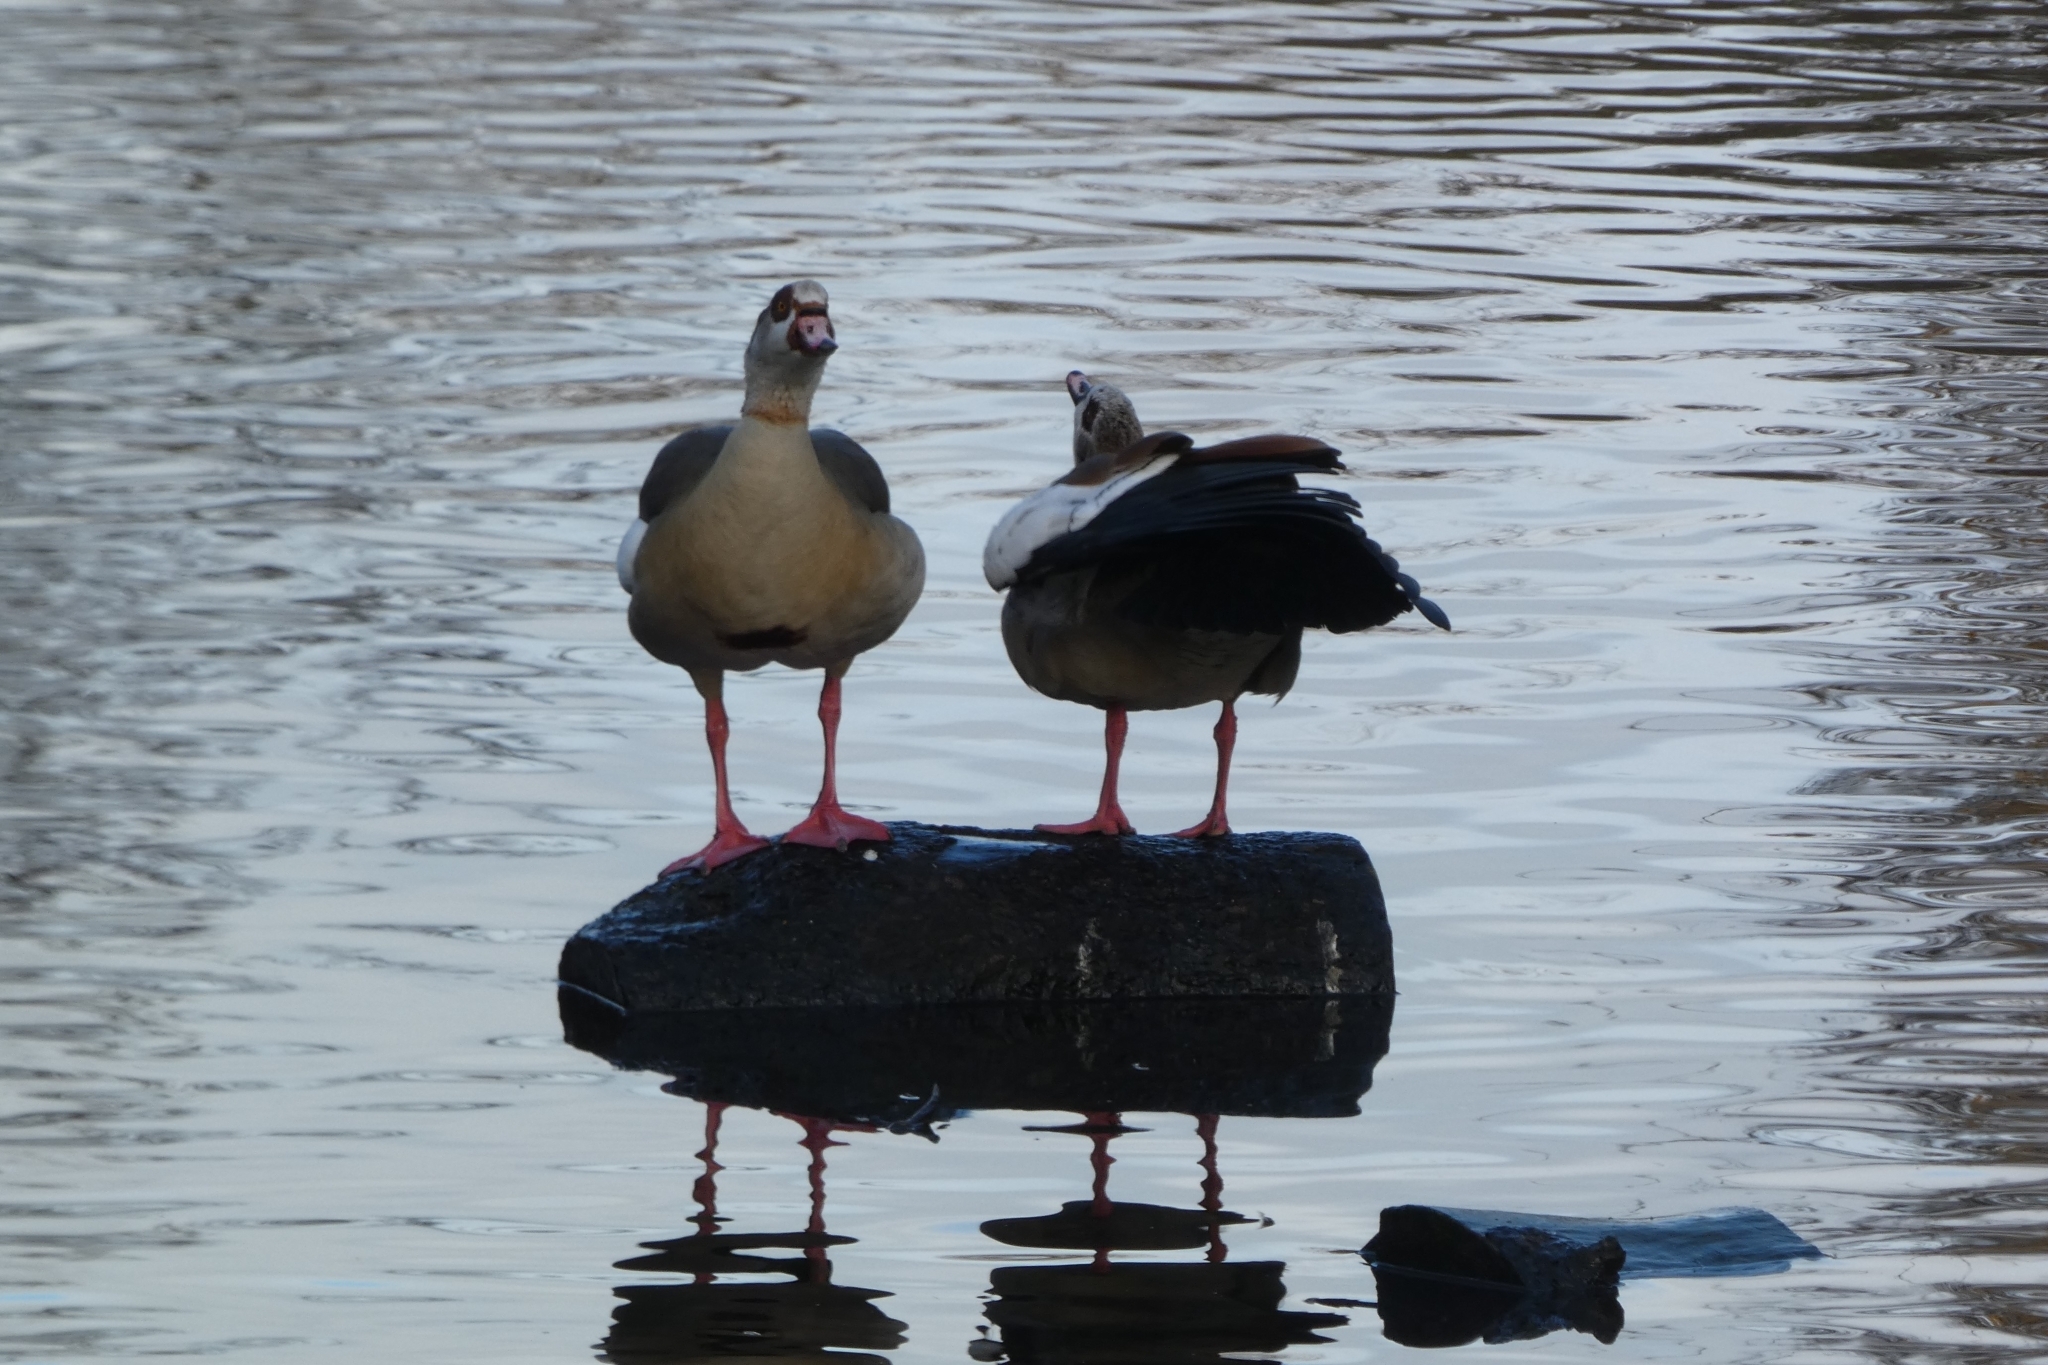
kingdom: Animalia
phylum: Chordata
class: Aves
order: Anseriformes
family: Anatidae
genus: Alopochen
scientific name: Alopochen aegyptiaca
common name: Egyptian goose
